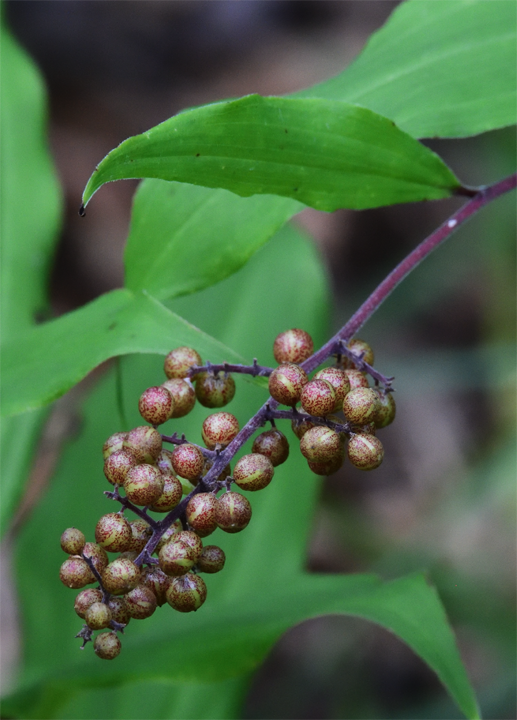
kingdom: Plantae
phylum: Tracheophyta
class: Liliopsida
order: Asparagales
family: Asparagaceae
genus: Maianthemum
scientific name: Maianthemum racemosum
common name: False spikenard
